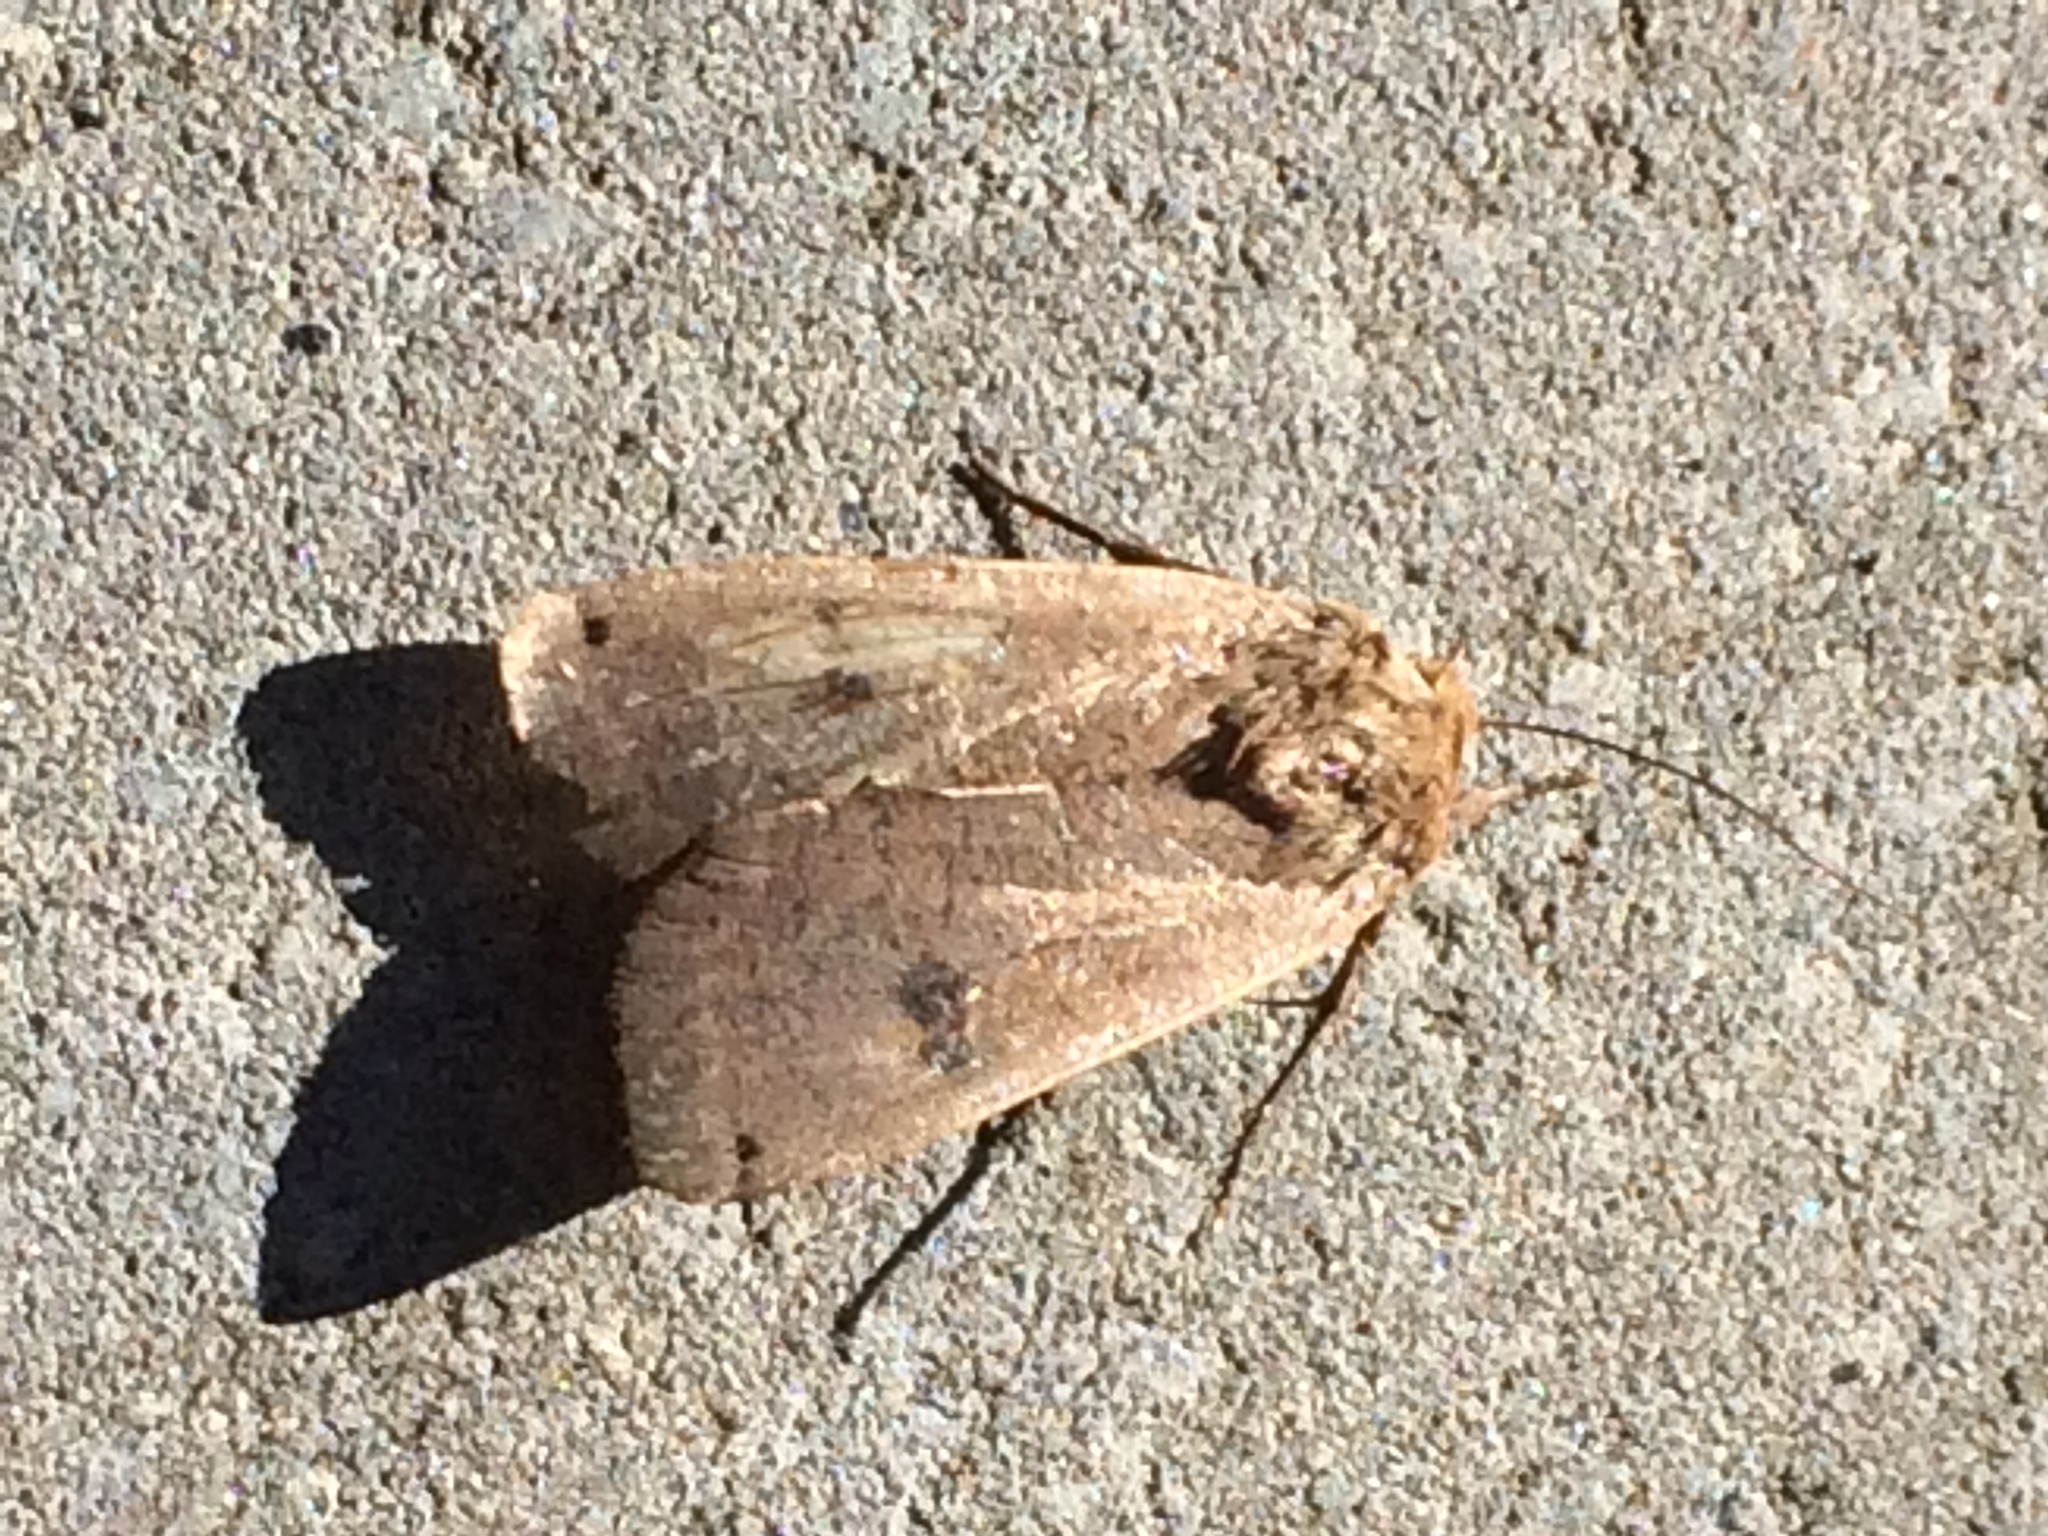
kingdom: Animalia
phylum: Arthropoda
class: Insecta
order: Lepidoptera
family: Noctuidae
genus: Noctua
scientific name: Noctua pronuba
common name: Large yellow underwing
